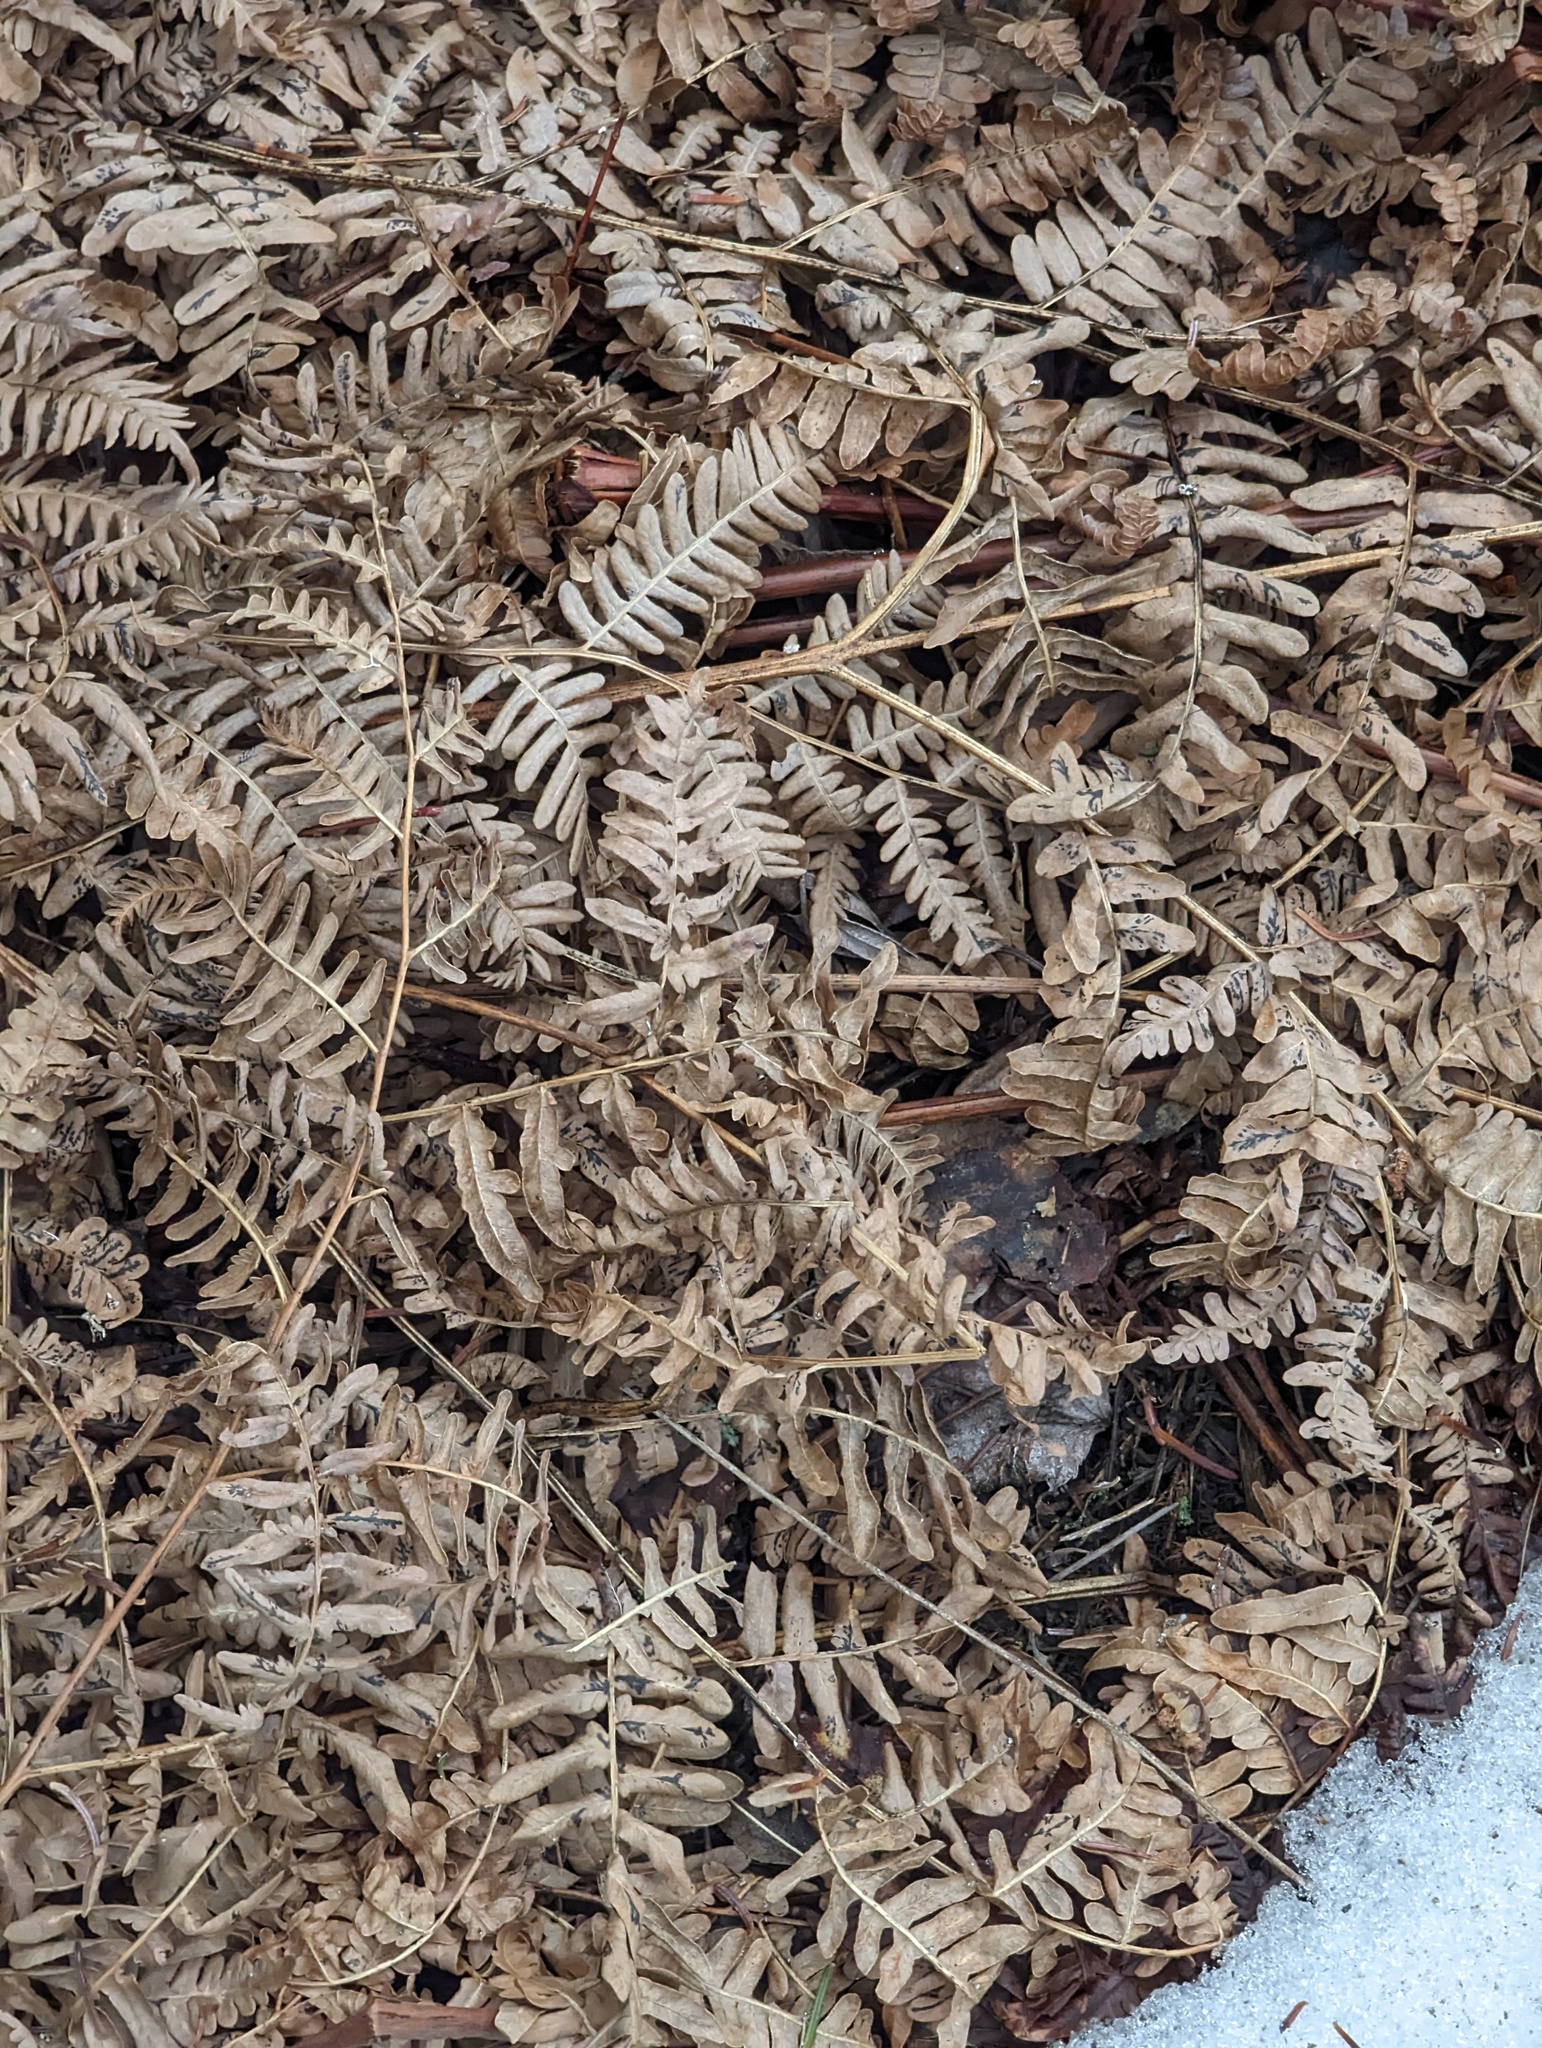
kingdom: Plantae
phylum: Tracheophyta
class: Polypodiopsida
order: Polypodiales
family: Dennstaedtiaceae
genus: Pteridium
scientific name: Pteridium aquilinum
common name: Bracken
